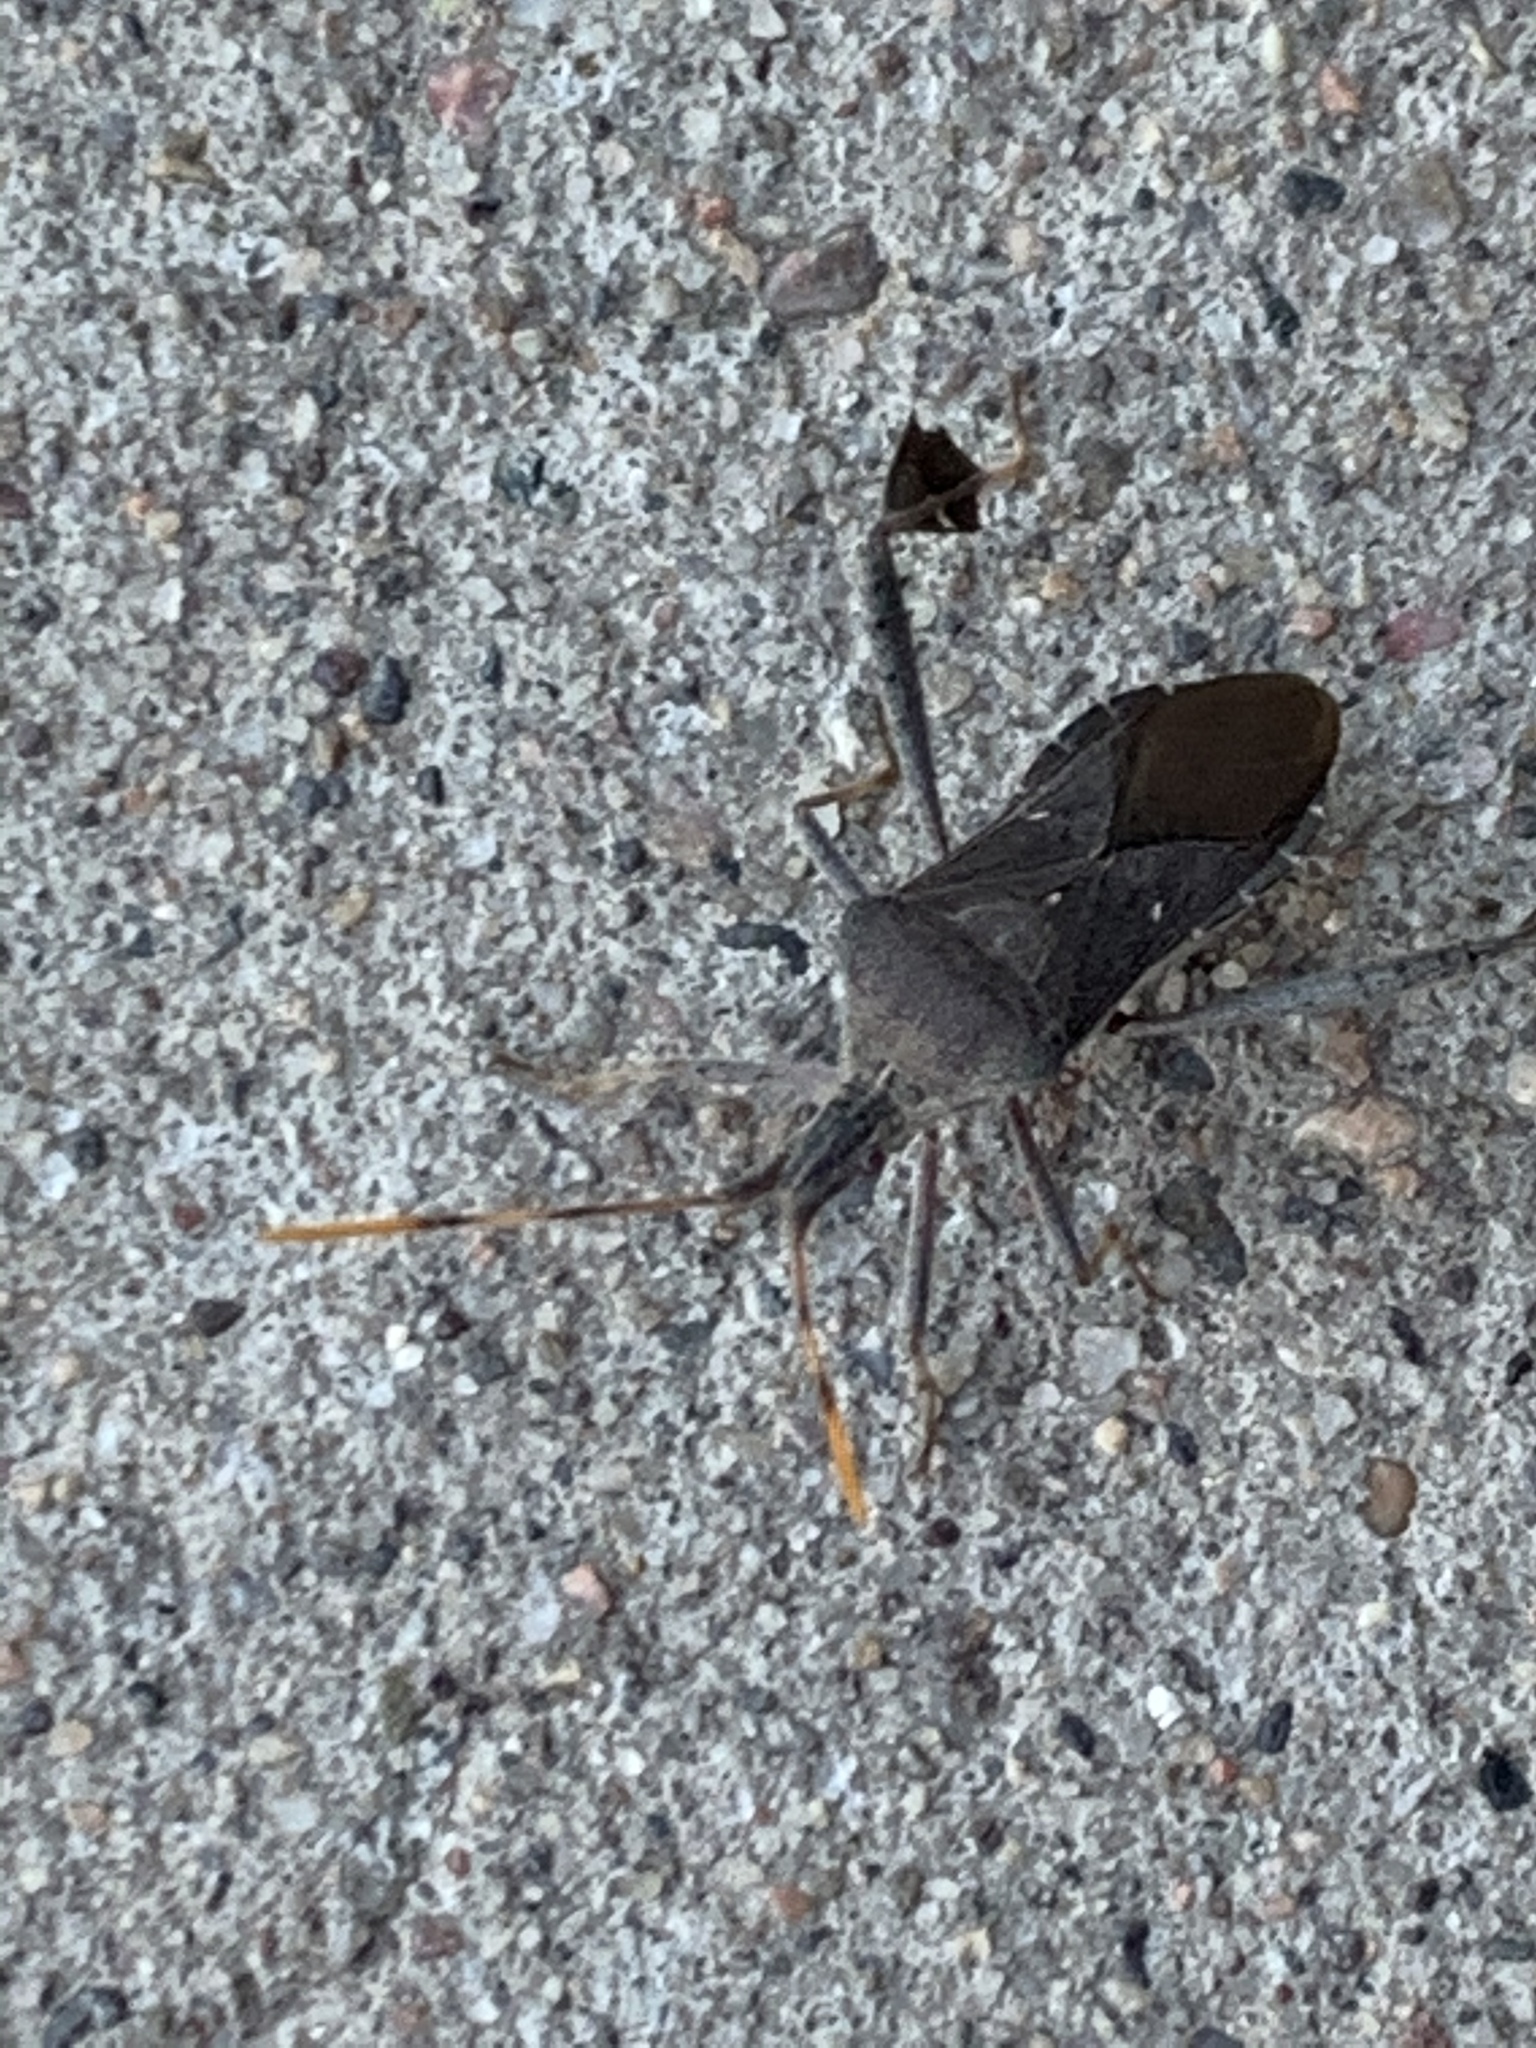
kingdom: Animalia
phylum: Arthropoda
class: Insecta
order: Hemiptera
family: Coreidae
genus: Leptoglossus
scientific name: Leptoglossus oppositus
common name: Northern leaf-footed bug
